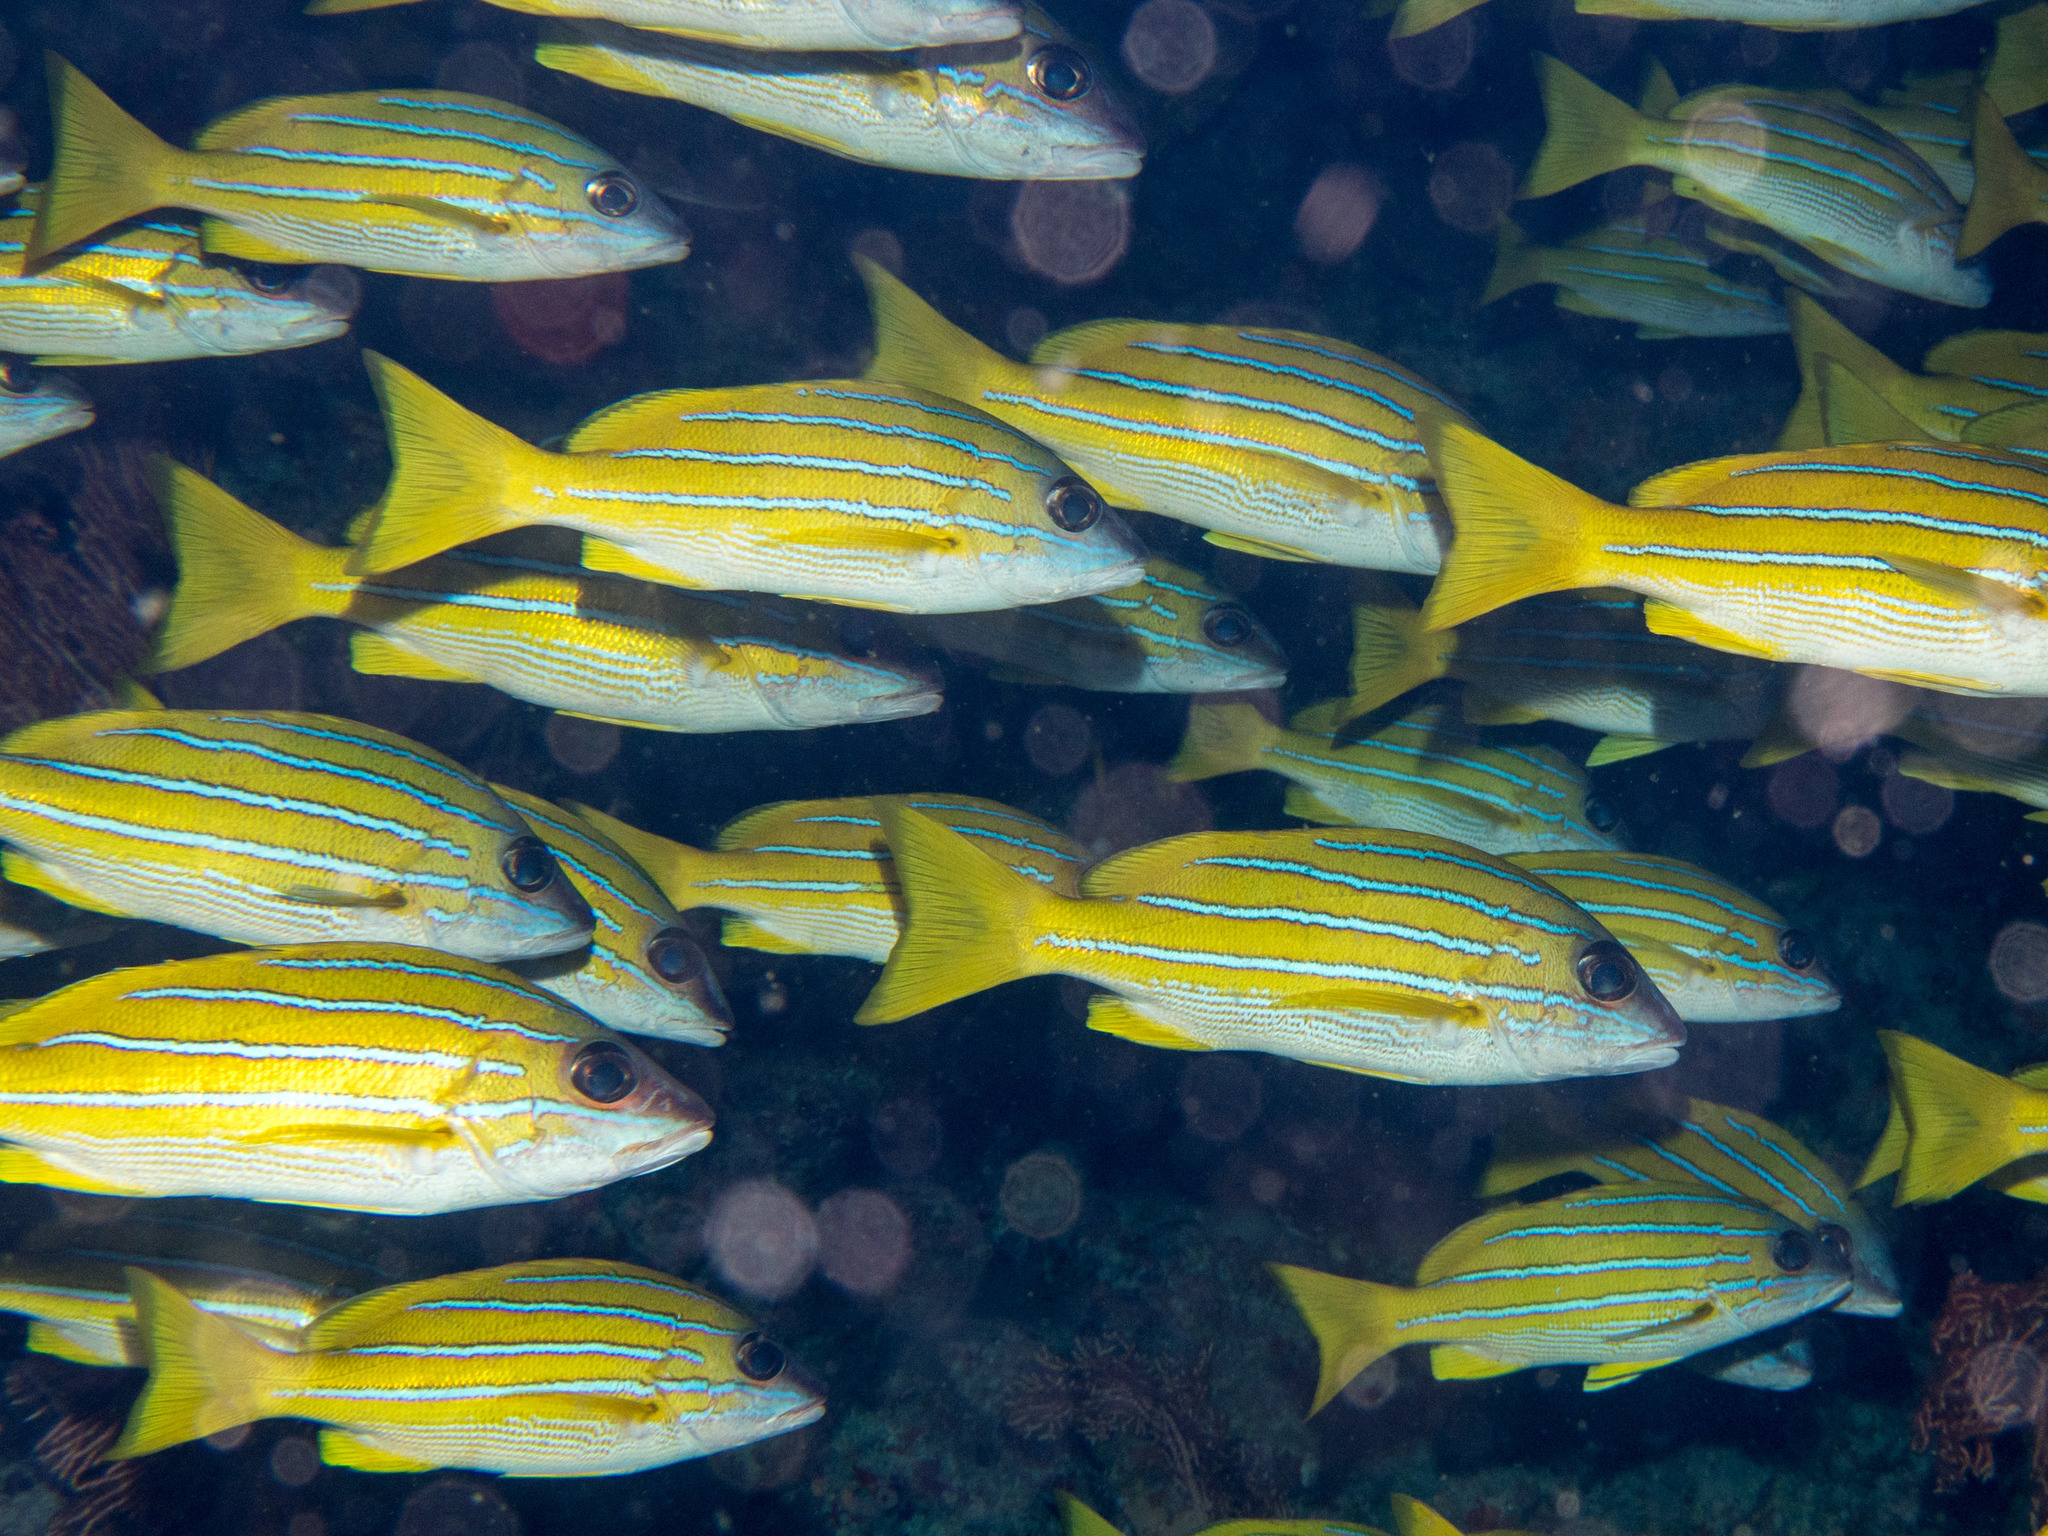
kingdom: Animalia
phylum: Chordata
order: Perciformes
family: Lutjanidae
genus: Lutjanus
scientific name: Lutjanus kasmira
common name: Common bluestripe snapper
